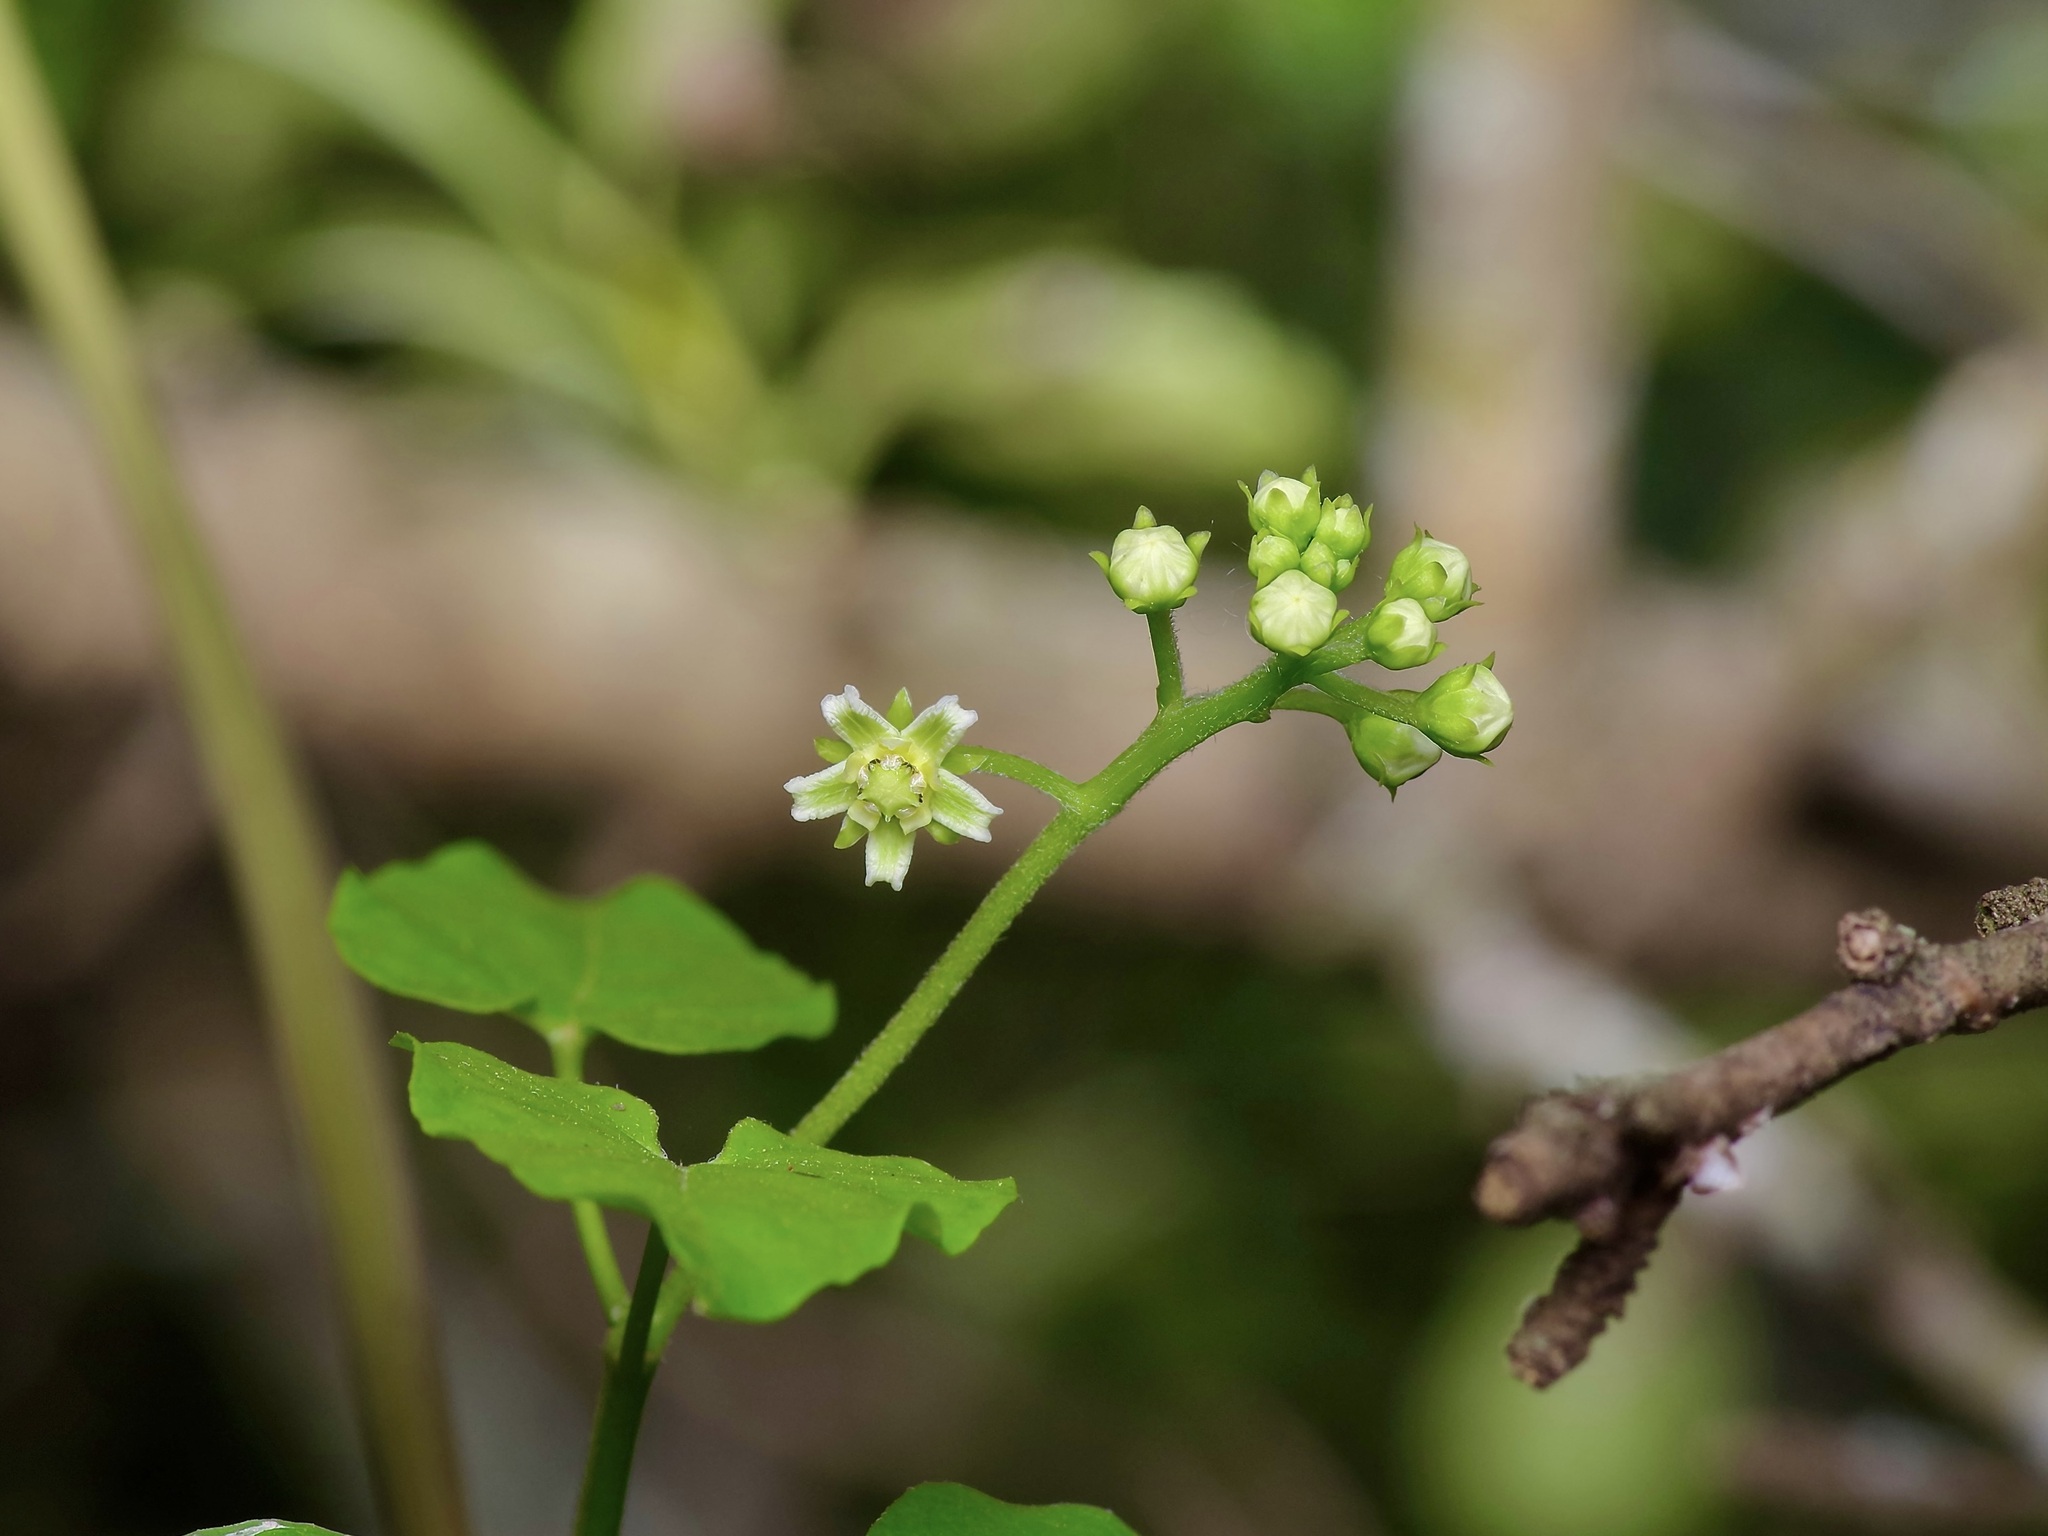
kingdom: Plantae
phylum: Tracheophyta
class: Magnoliopsida
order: Gentianales
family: Apocynaceae
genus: Cynanchum
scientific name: Cynanchum racemosum
